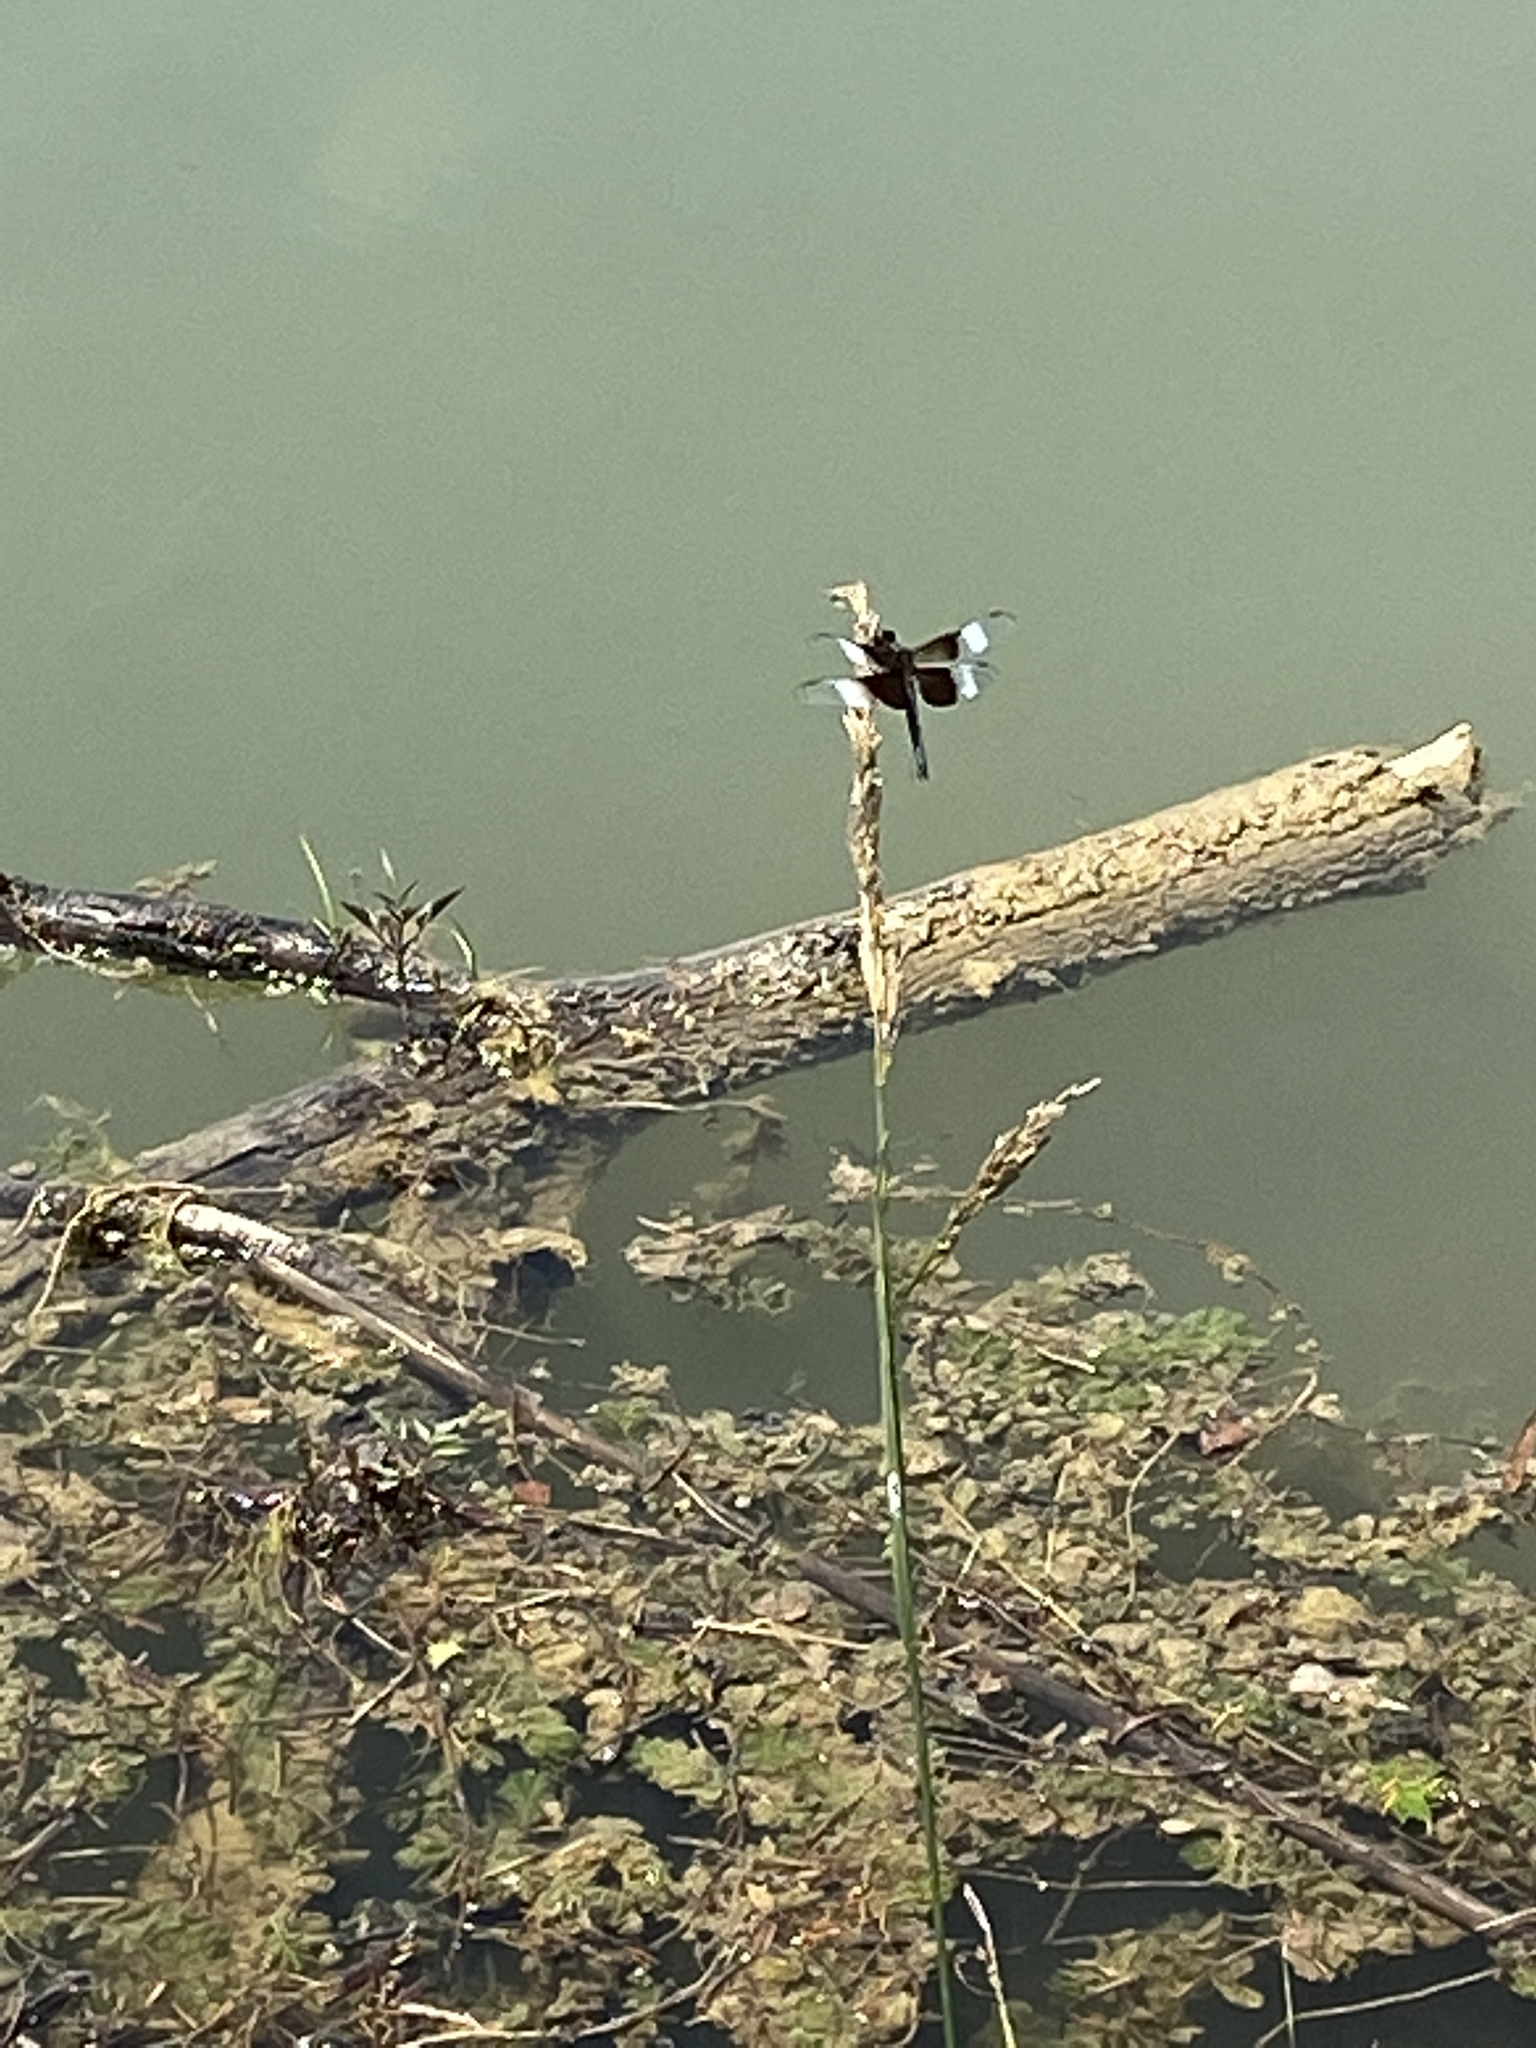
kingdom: Animalia
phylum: Arthropoda
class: Insecta
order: Odonata
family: Libellulidae
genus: Libellula
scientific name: Libellula luctuosa
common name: Widow skimmer
